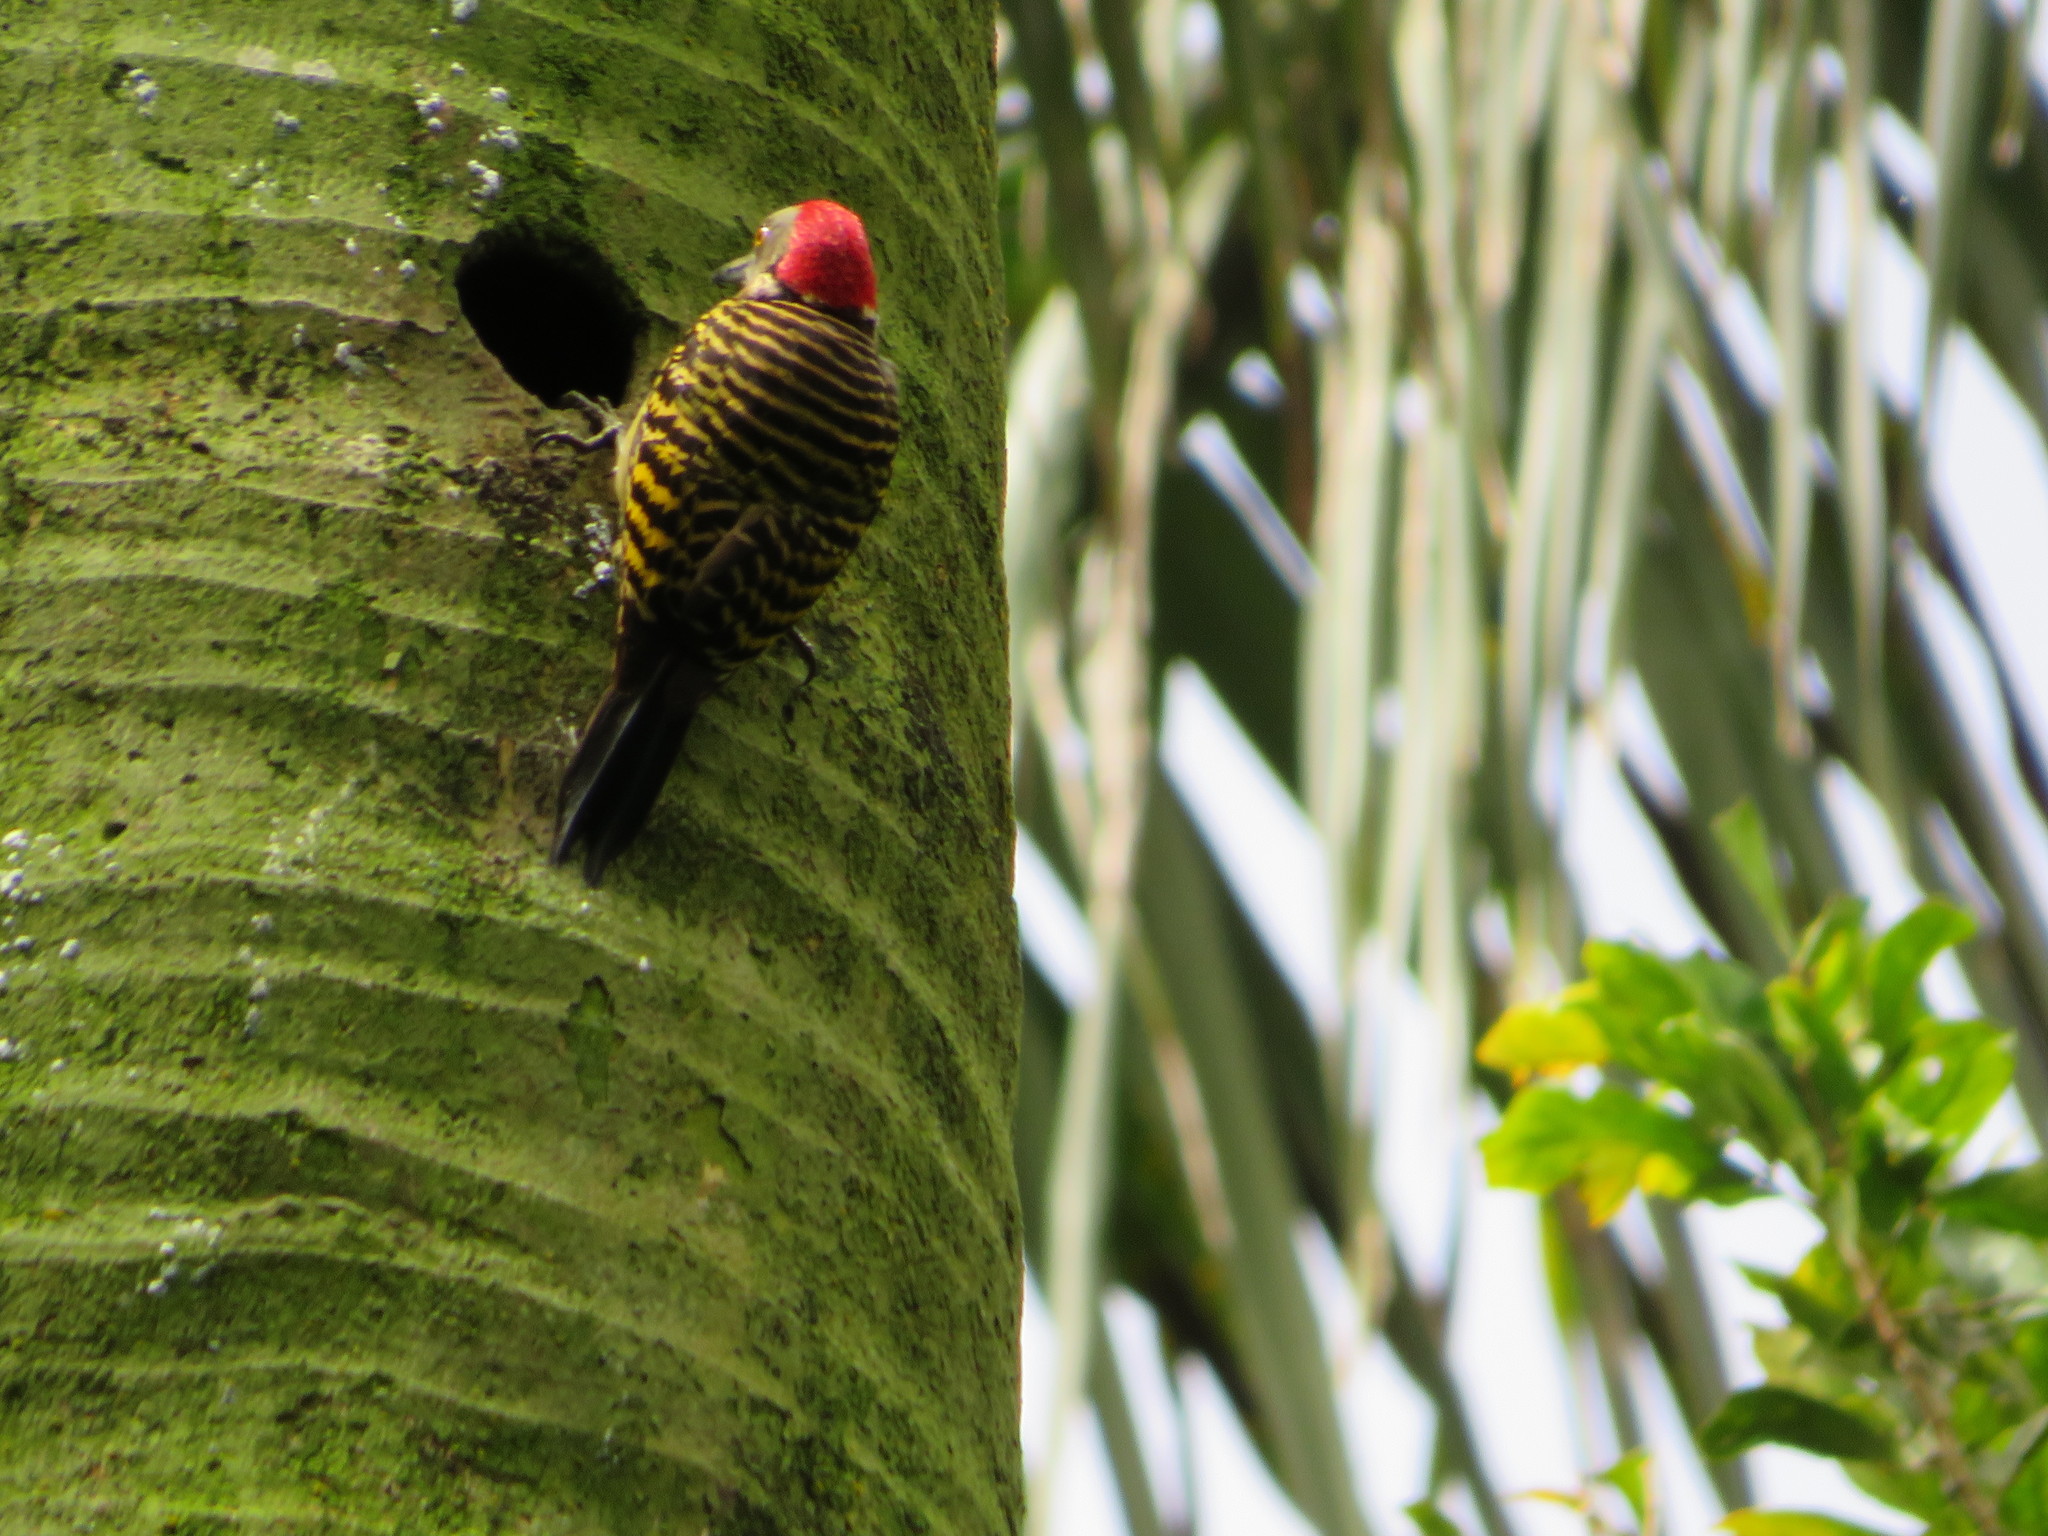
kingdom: Animalia
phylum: Chordata
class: Aves
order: Piciformes
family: Picidae
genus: Melanerpes
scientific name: Melanerpes striatus
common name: Hispaniolan woodpecker
